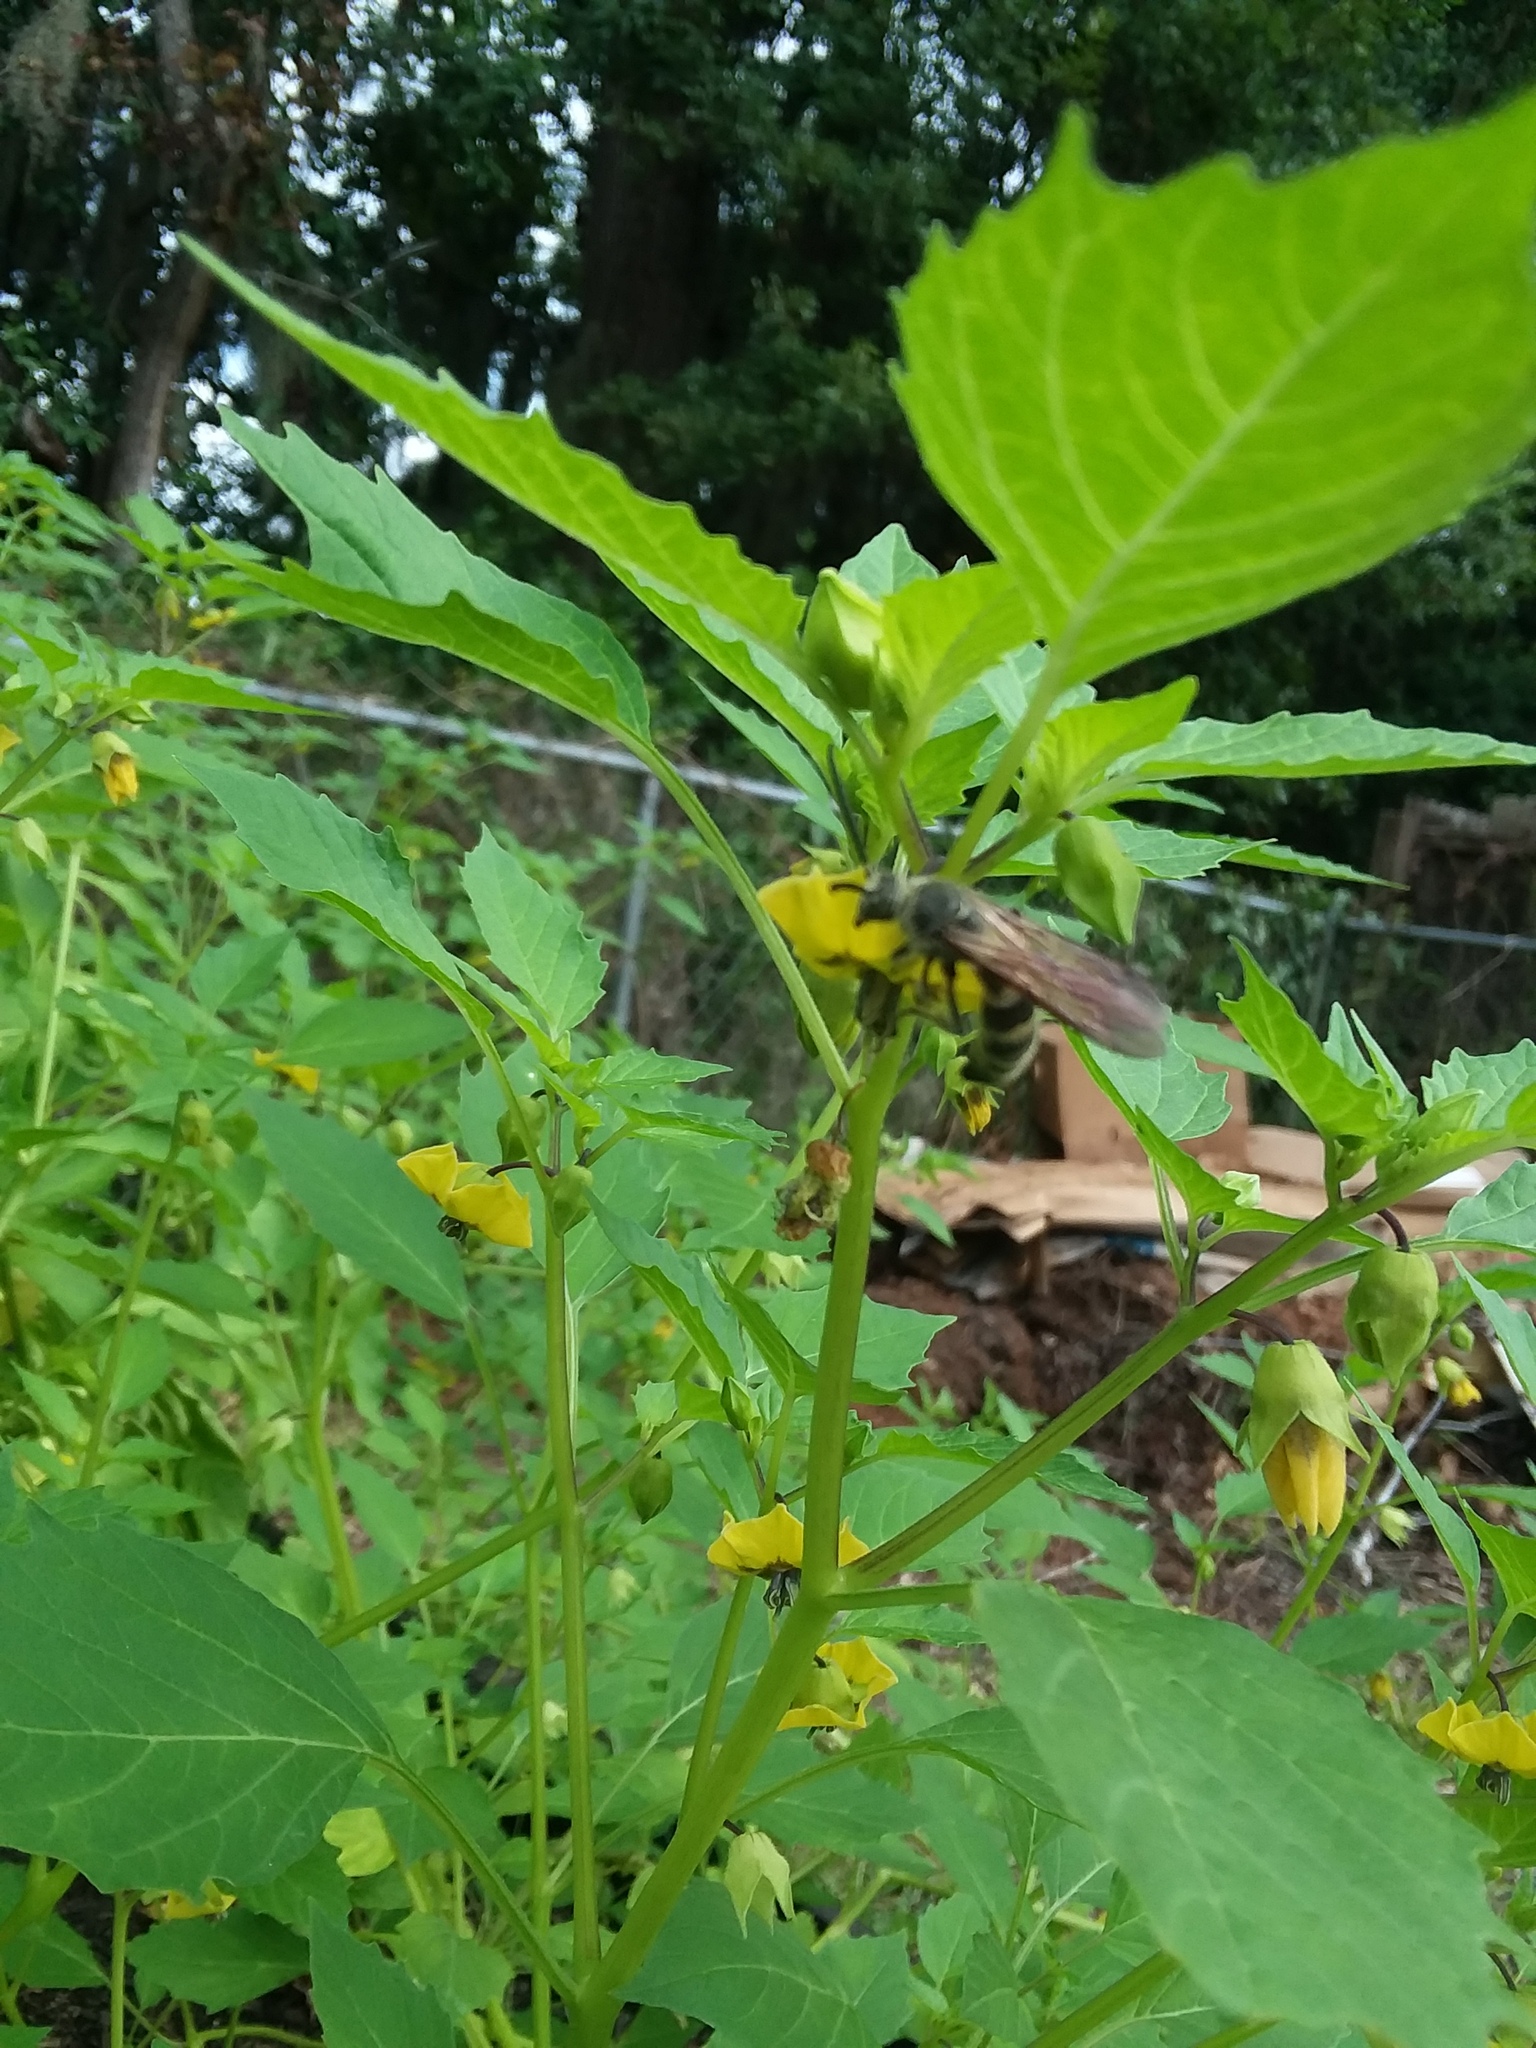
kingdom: Animalia
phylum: Arthropoda
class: Insecta
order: Hymenoptera
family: Scoliidae
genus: Dielis
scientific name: Dielis
